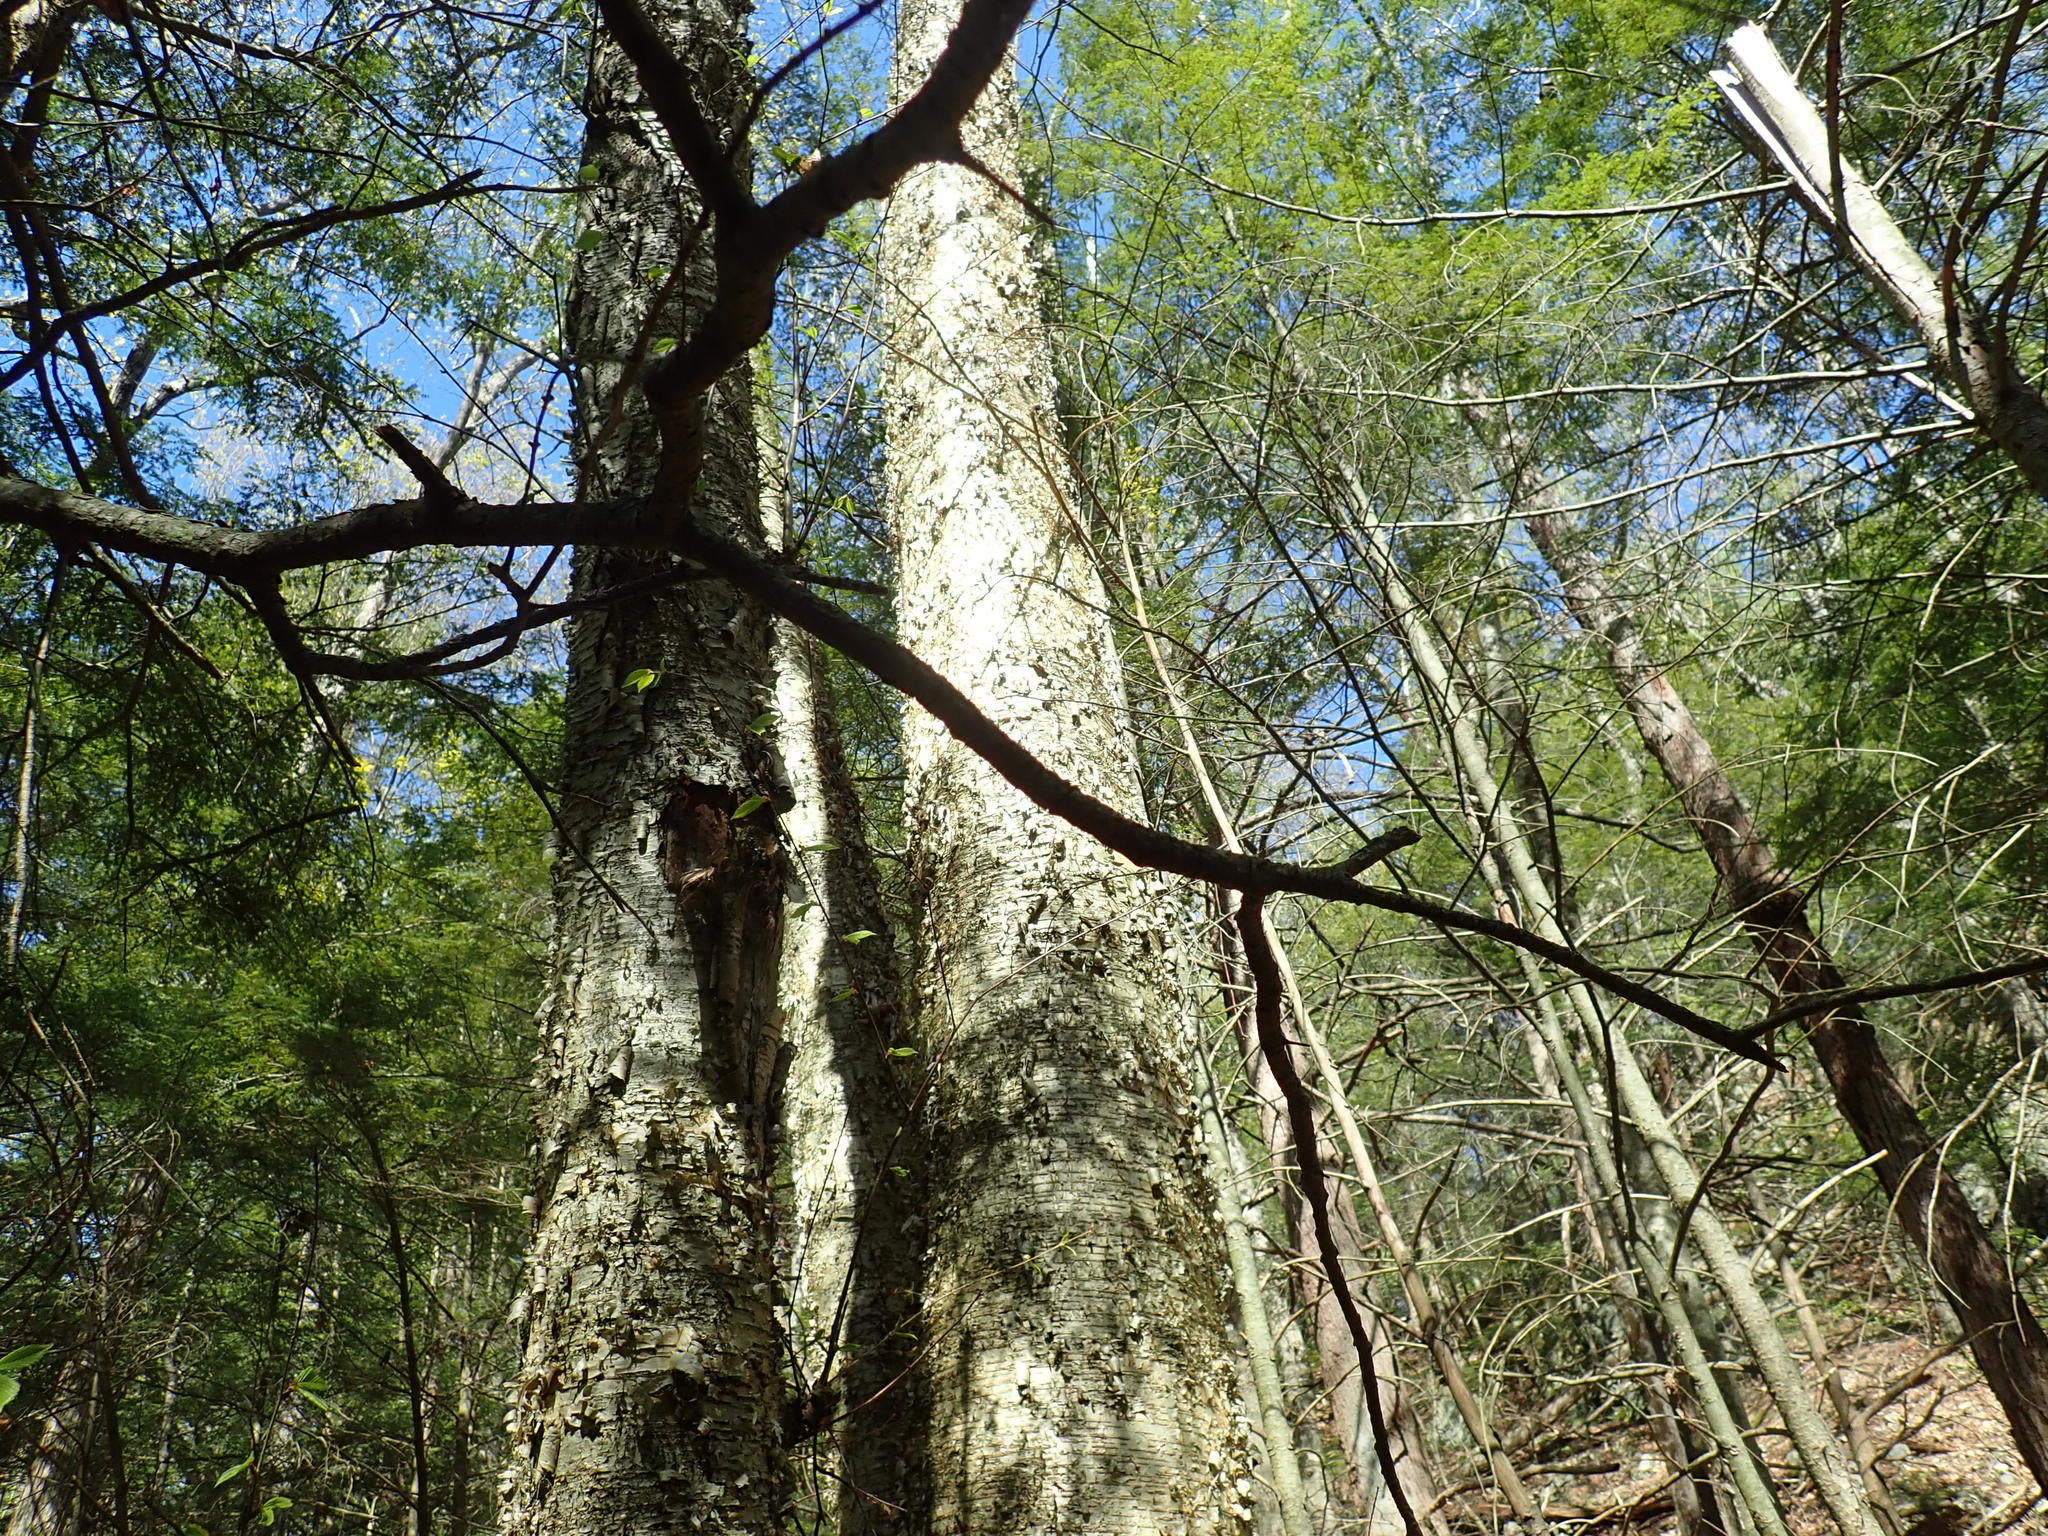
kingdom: Plantae
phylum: Tracheophyta
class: Magnoliopsida
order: Fagales
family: Betulaceae
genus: Betula
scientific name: Betula alleghaniensis
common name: Yellow birch
